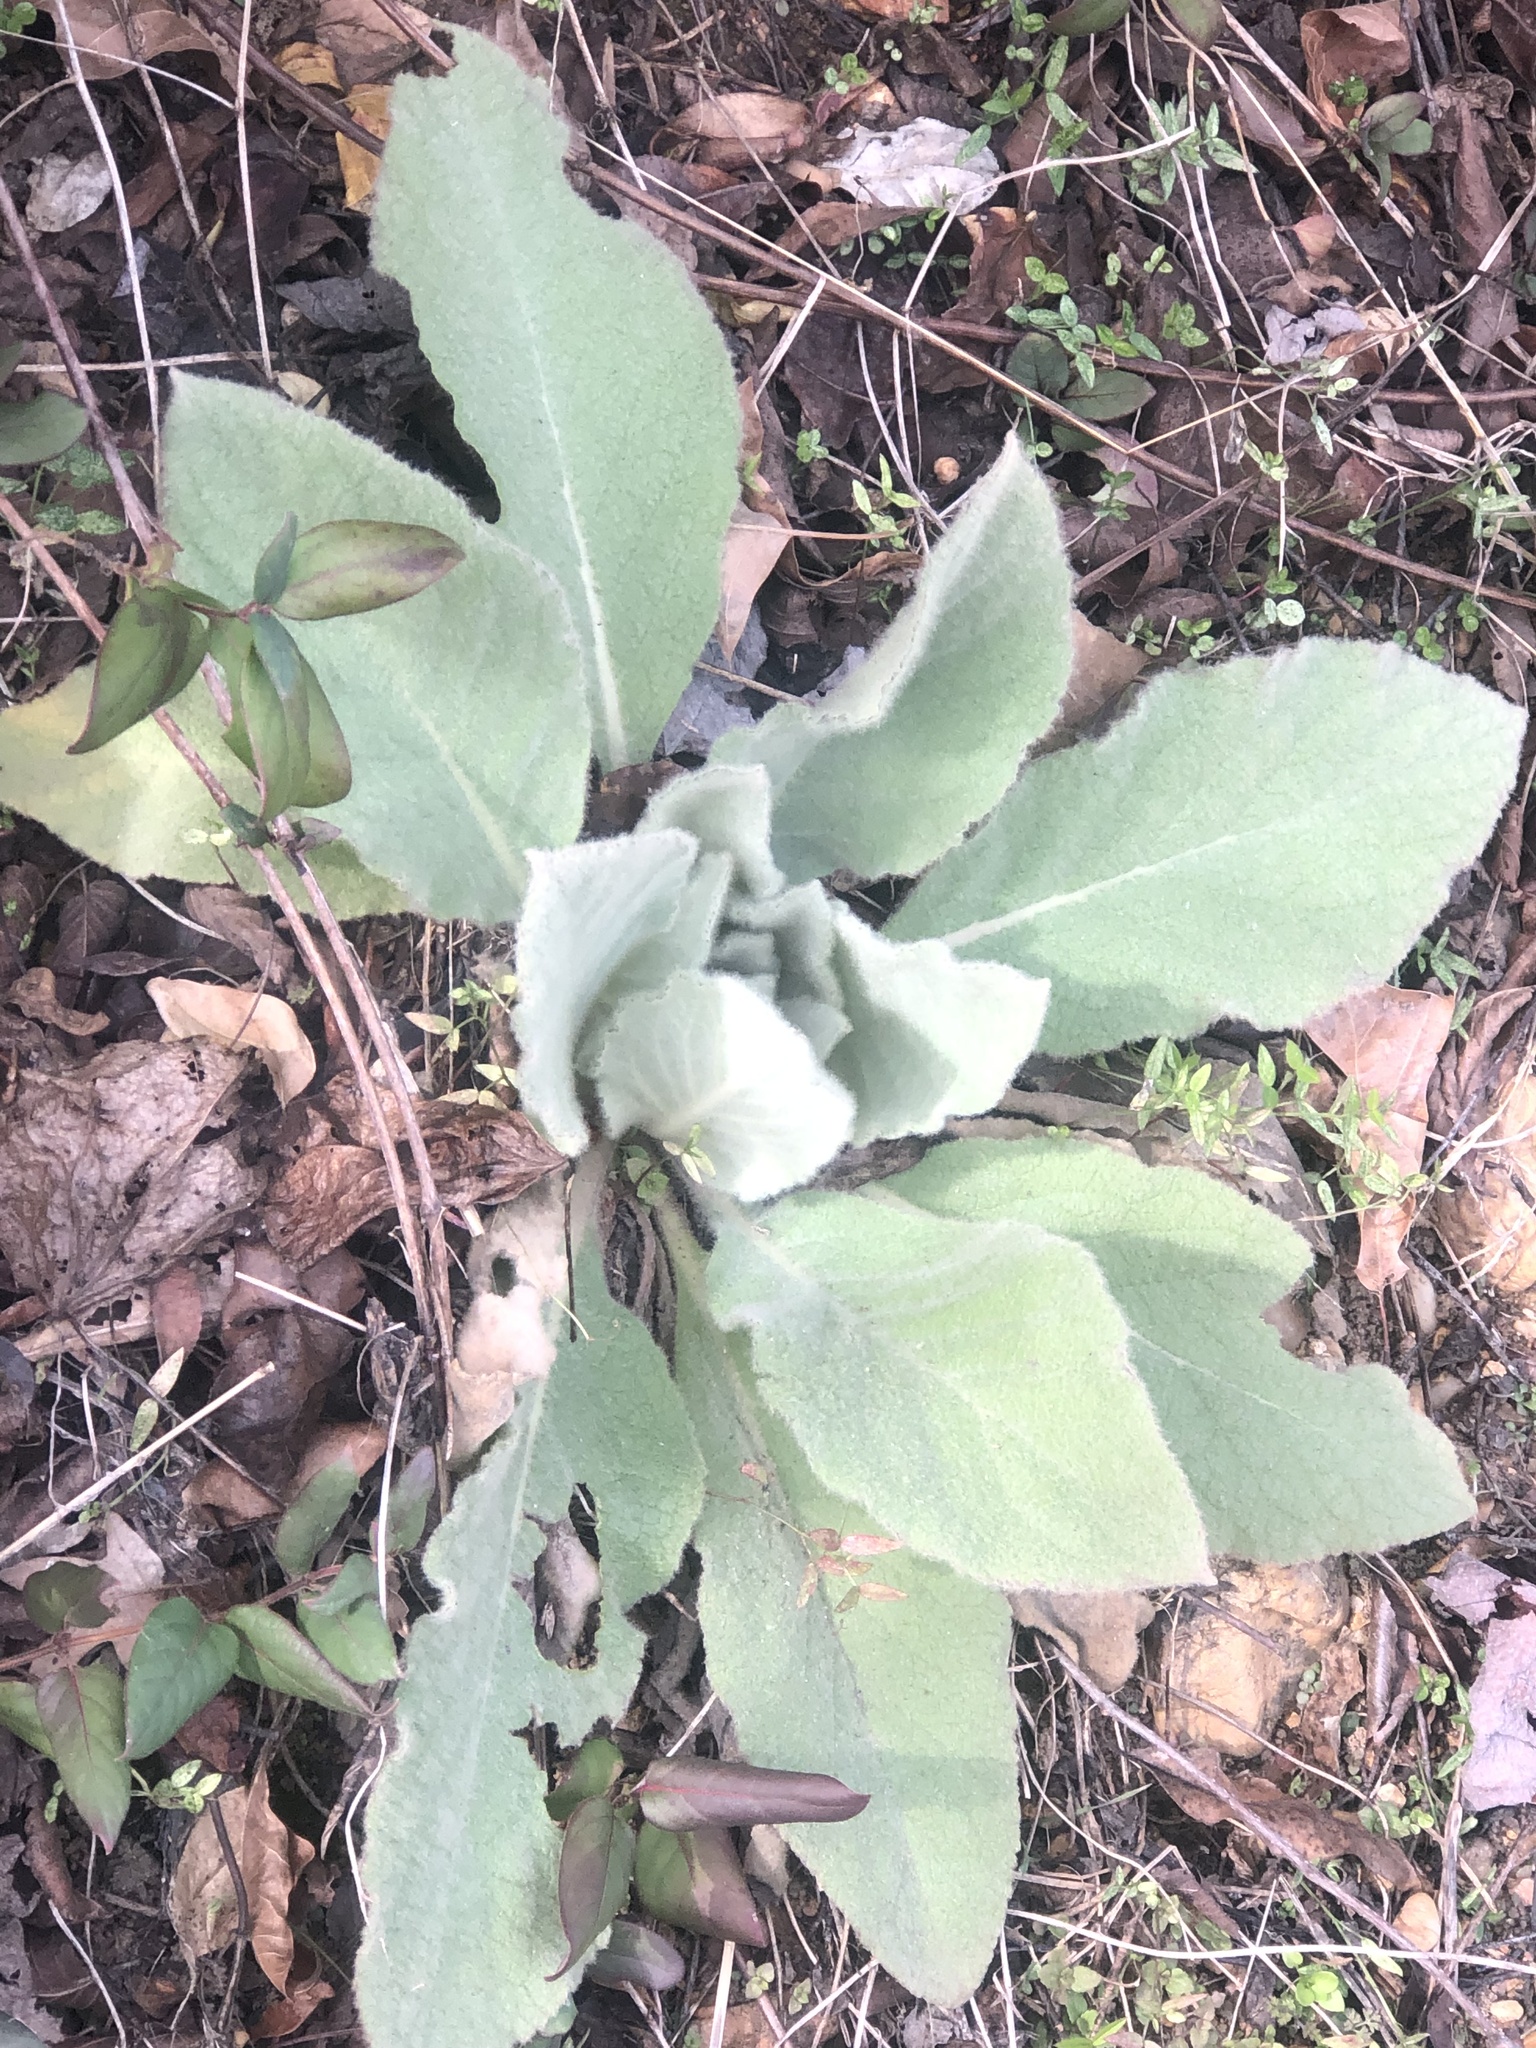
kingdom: Plantae
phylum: Tracheophyta
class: Magnoliopsida
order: Lamiales
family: Scrophulariaceae
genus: Verbascum
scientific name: Verbascum thapsus
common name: Common mullein
